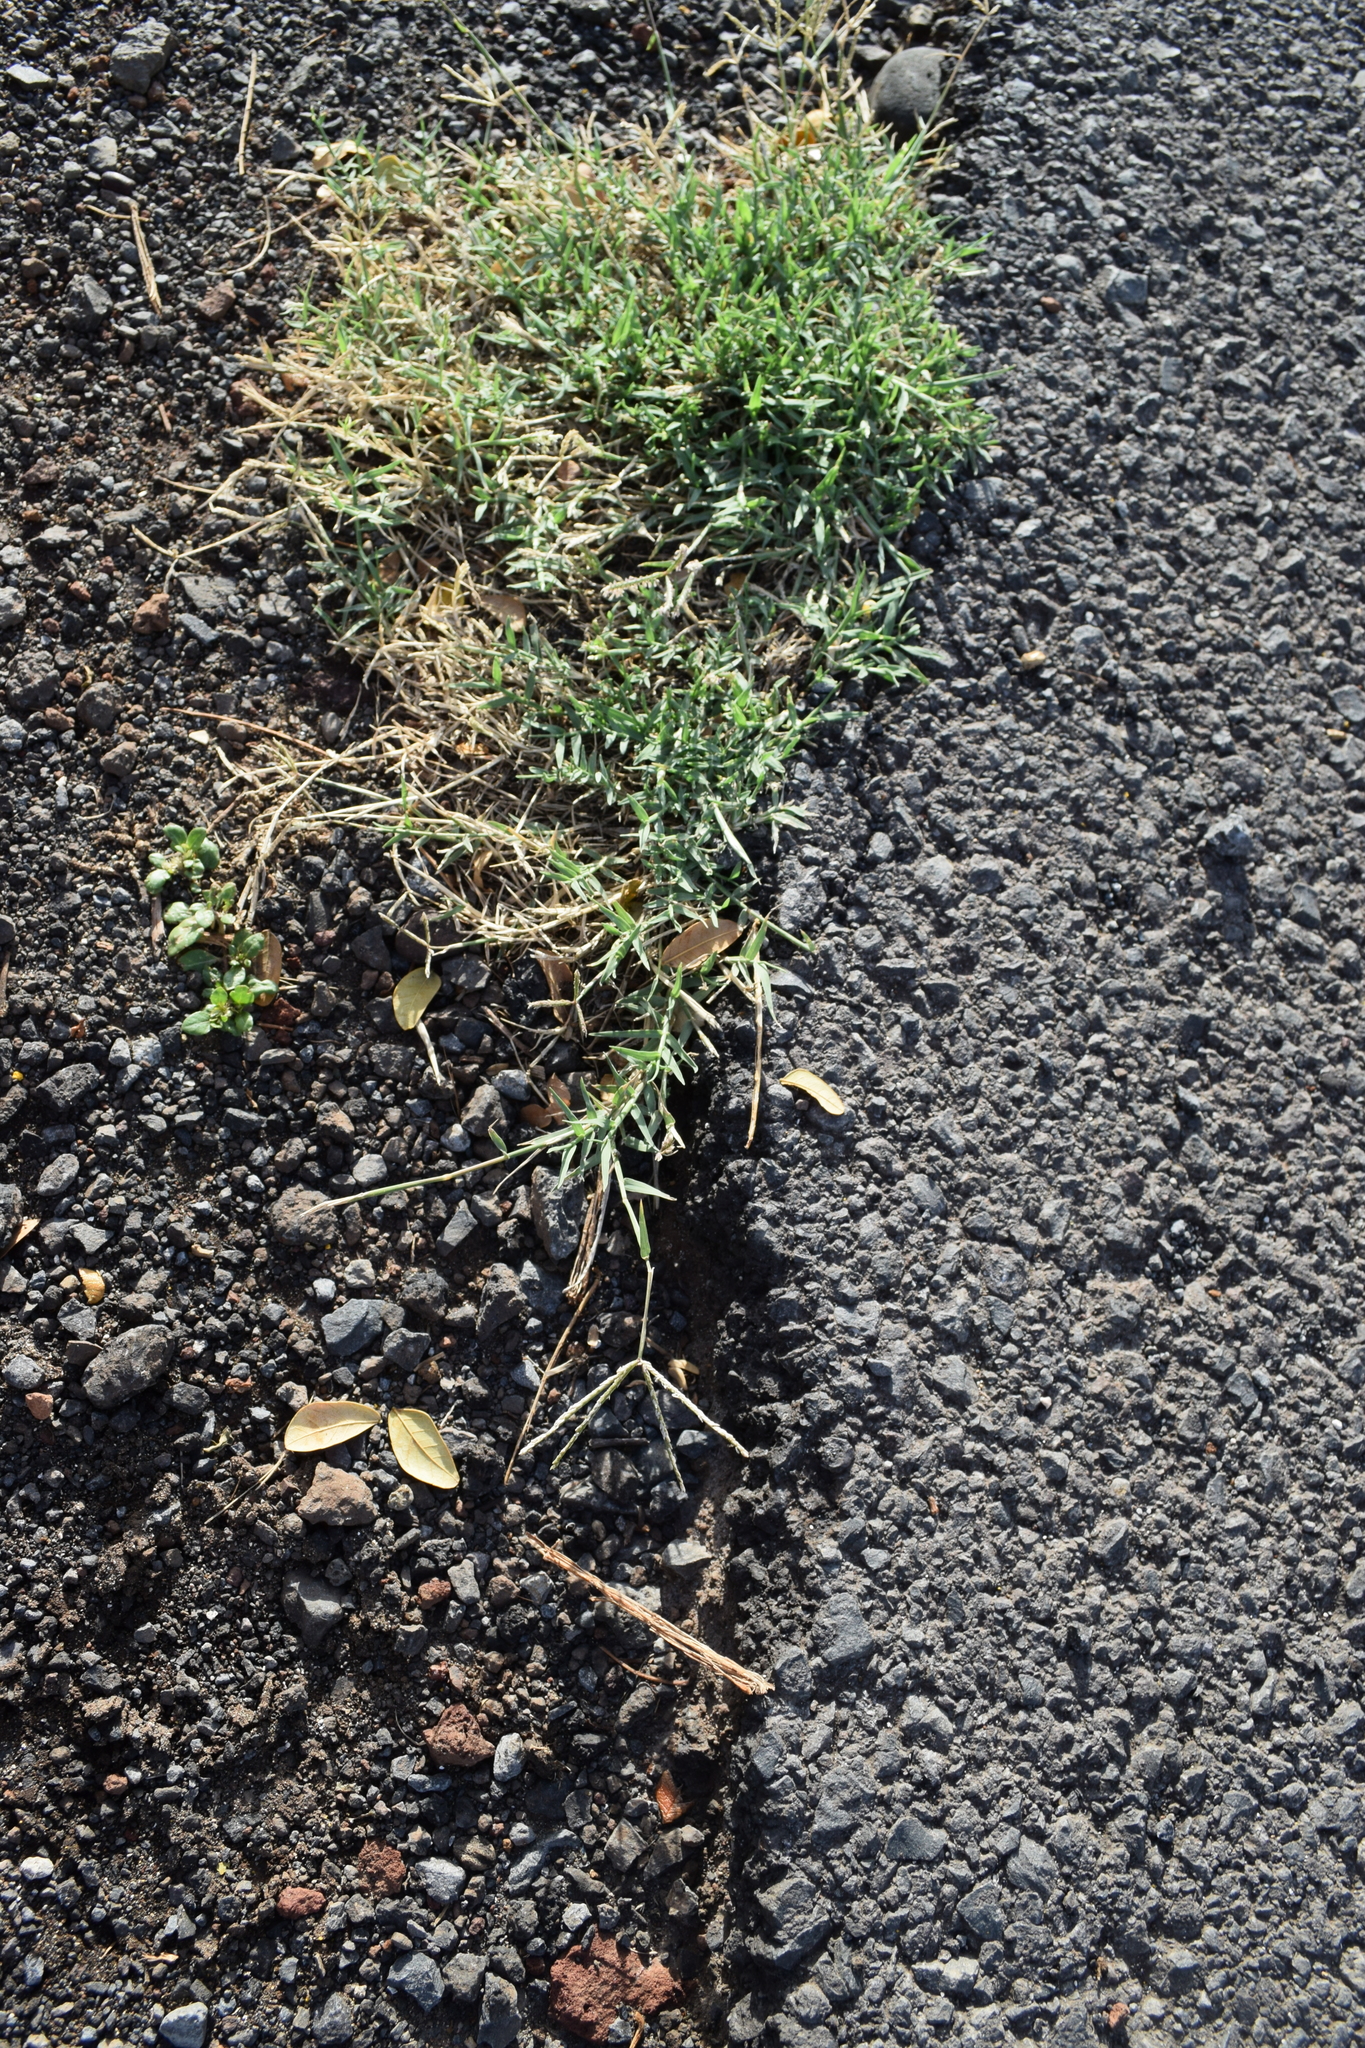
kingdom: Plantae
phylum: Tracheophyta
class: Liliopsida
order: Poales
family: Poaceae
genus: Cynodon
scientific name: Cynodon dactylon
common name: Bermuda grass
